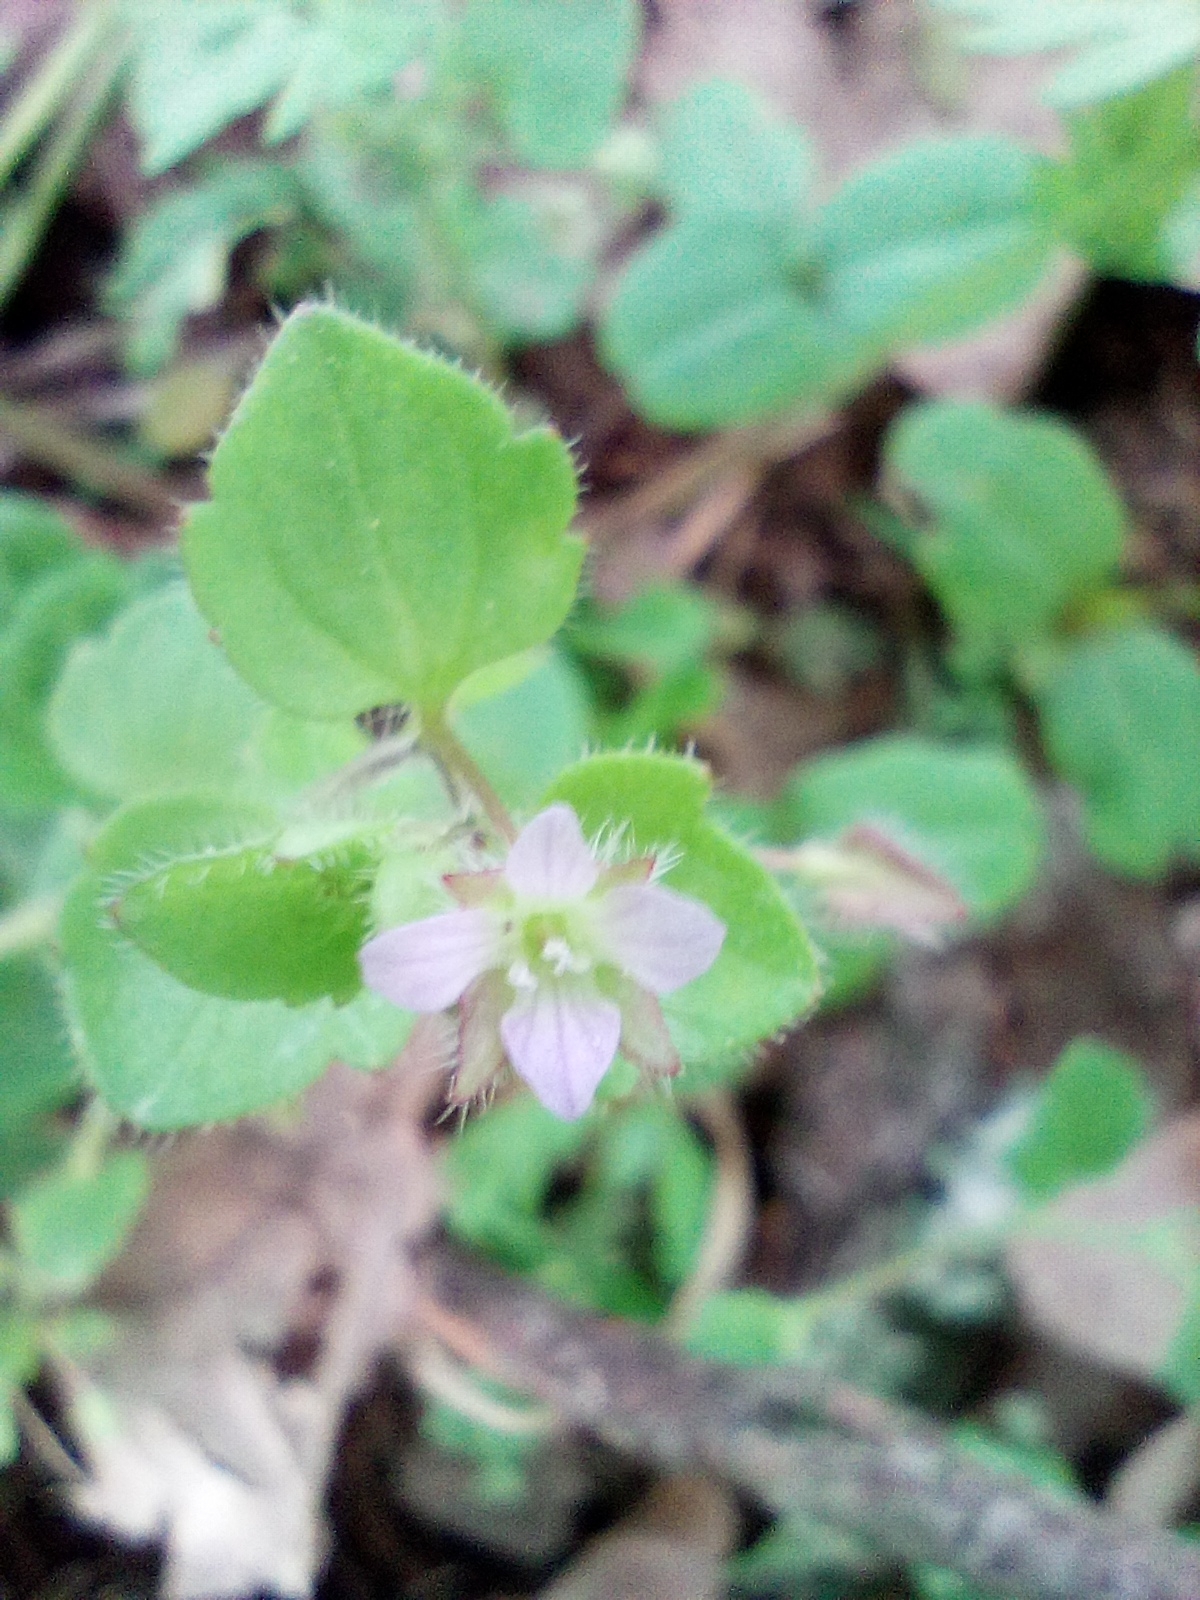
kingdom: Plantae
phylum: Tracheophyta
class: Magnoliopsida
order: Lamiales
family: Plantaginaceae
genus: Veronica
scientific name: Veronica sublobata
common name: False ivy-leaved speedwell
